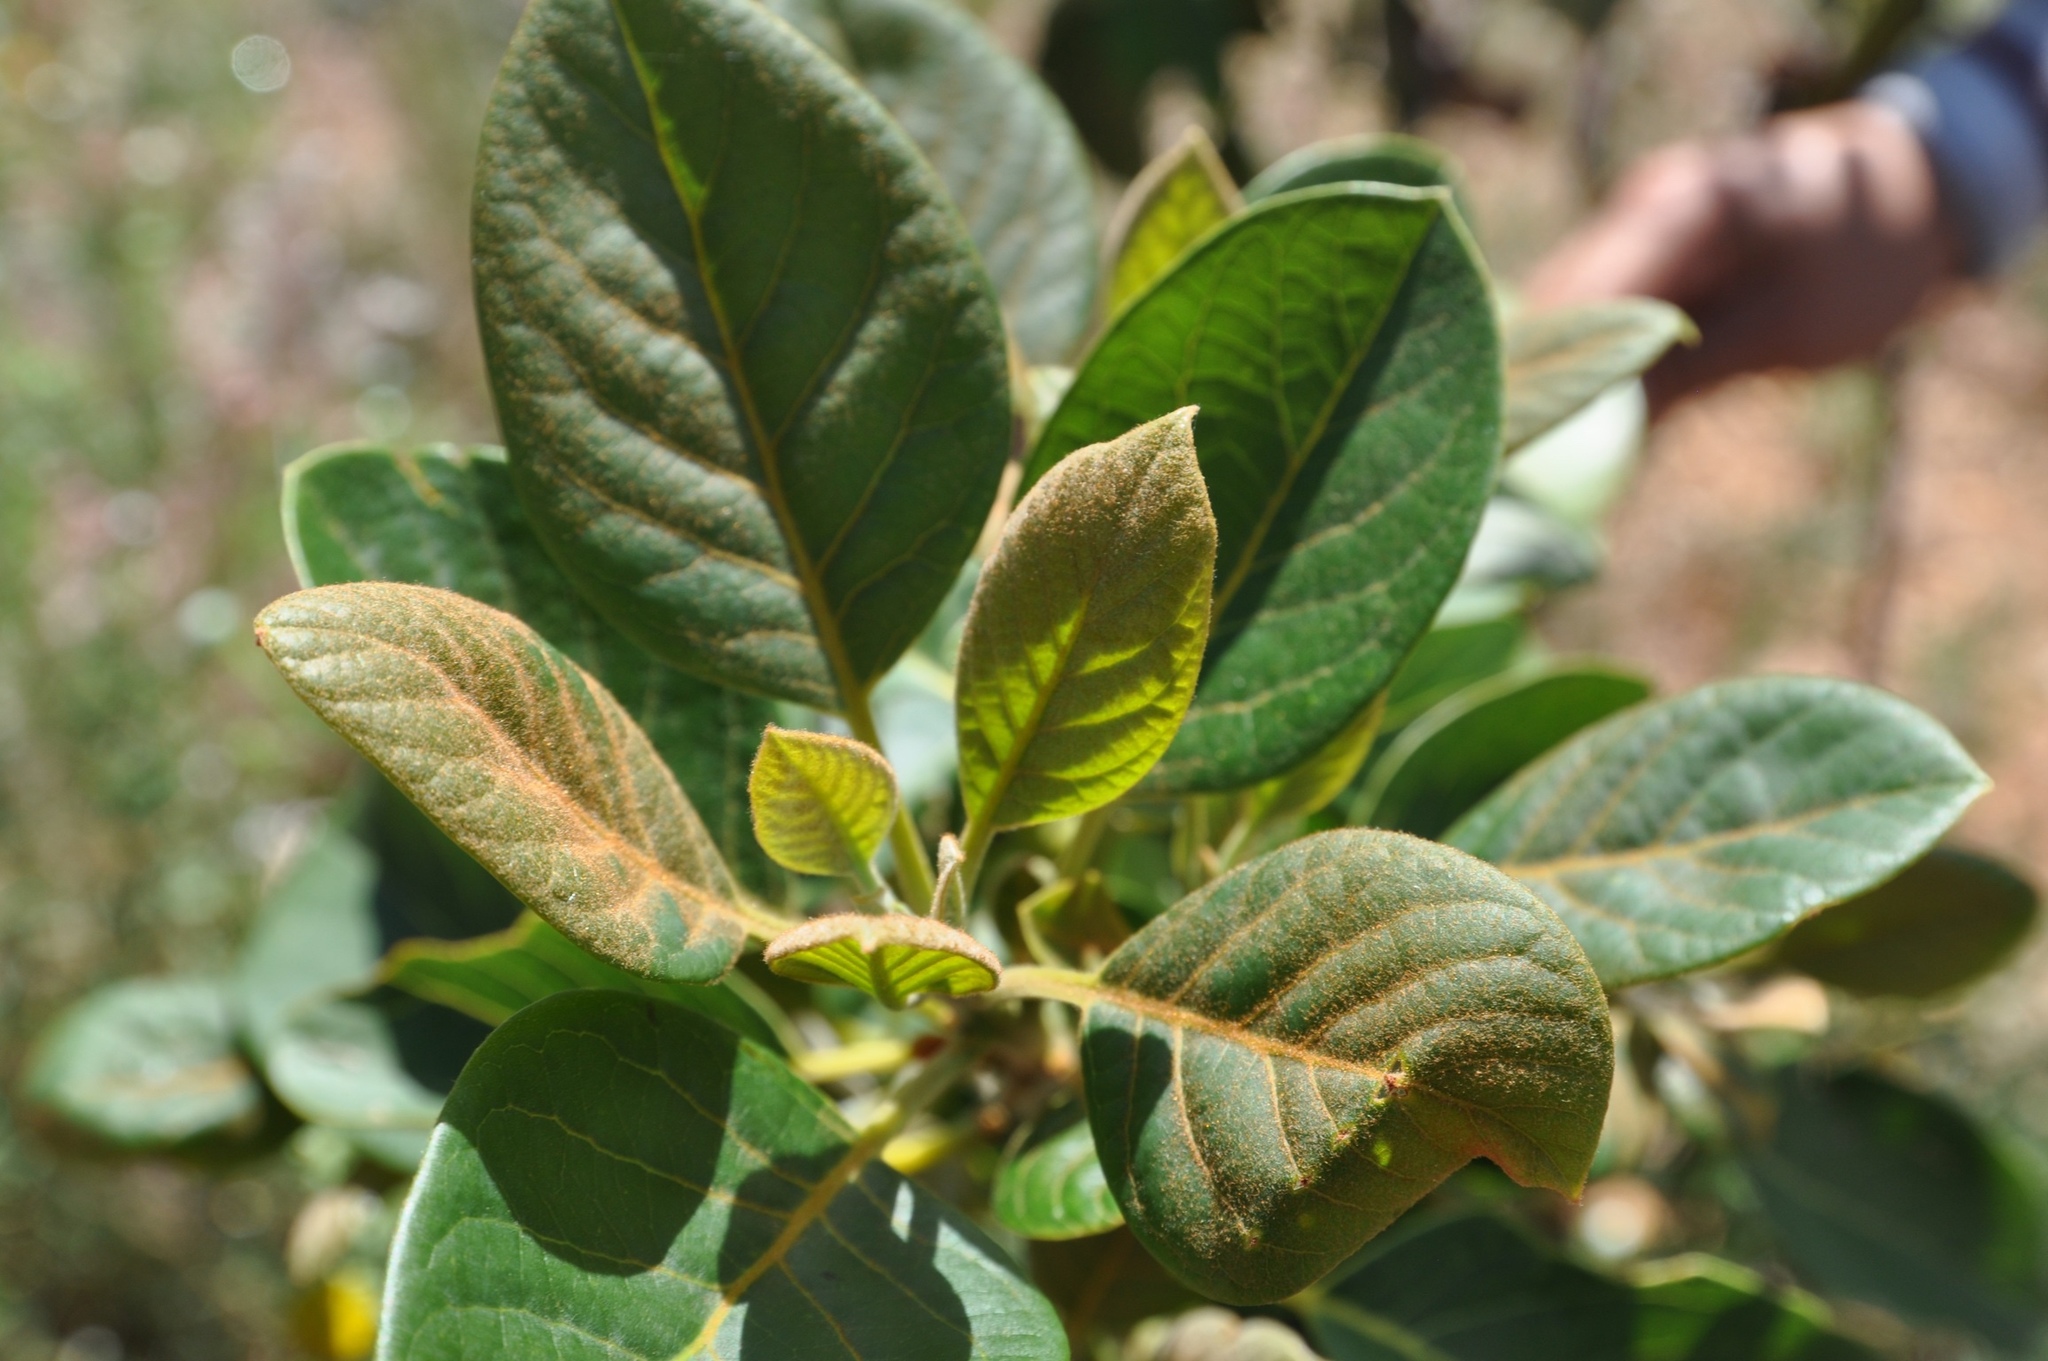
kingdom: Plantae
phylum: Tracheophyta
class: Magnoliopsida
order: Laurales
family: Lauraceae
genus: Persea
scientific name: Persea americana
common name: Avocado
